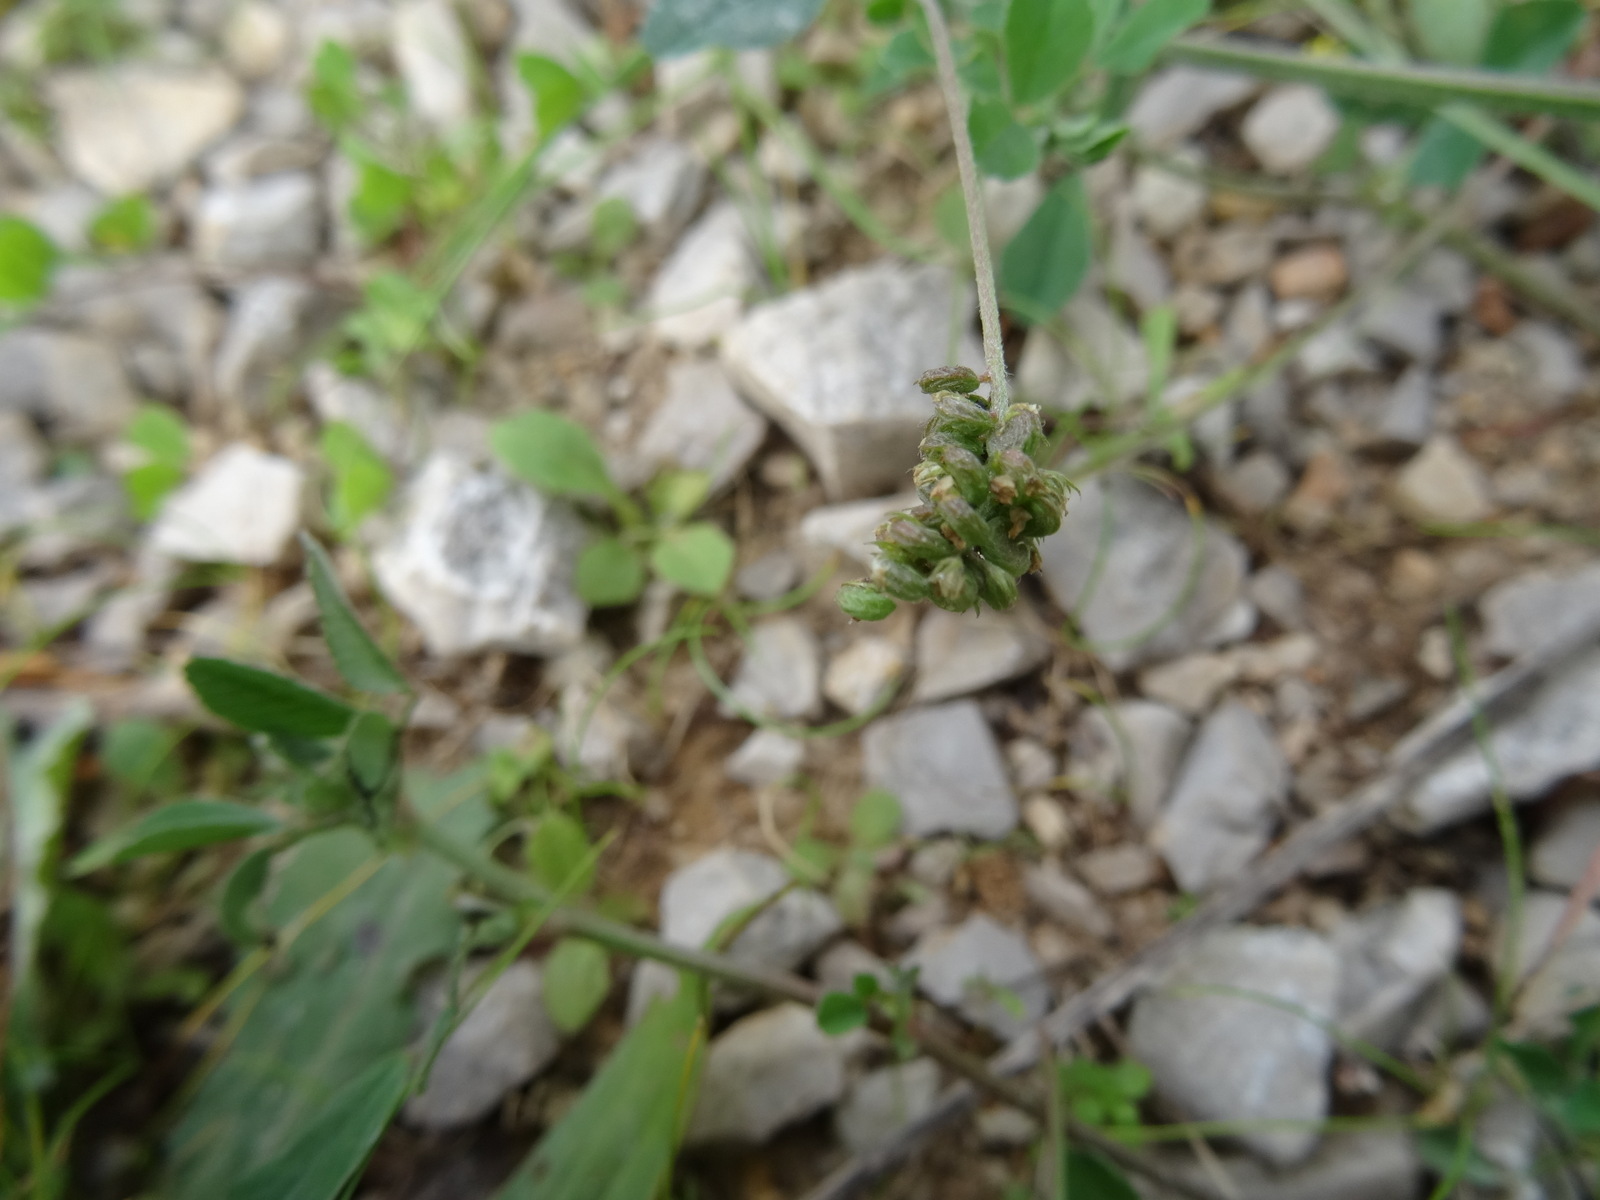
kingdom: Plantae
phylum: Tracheophyta
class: Magnoliopsida
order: Fabales
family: Fabaceae
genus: Medicago
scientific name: Medicago lupulina
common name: Black medick
